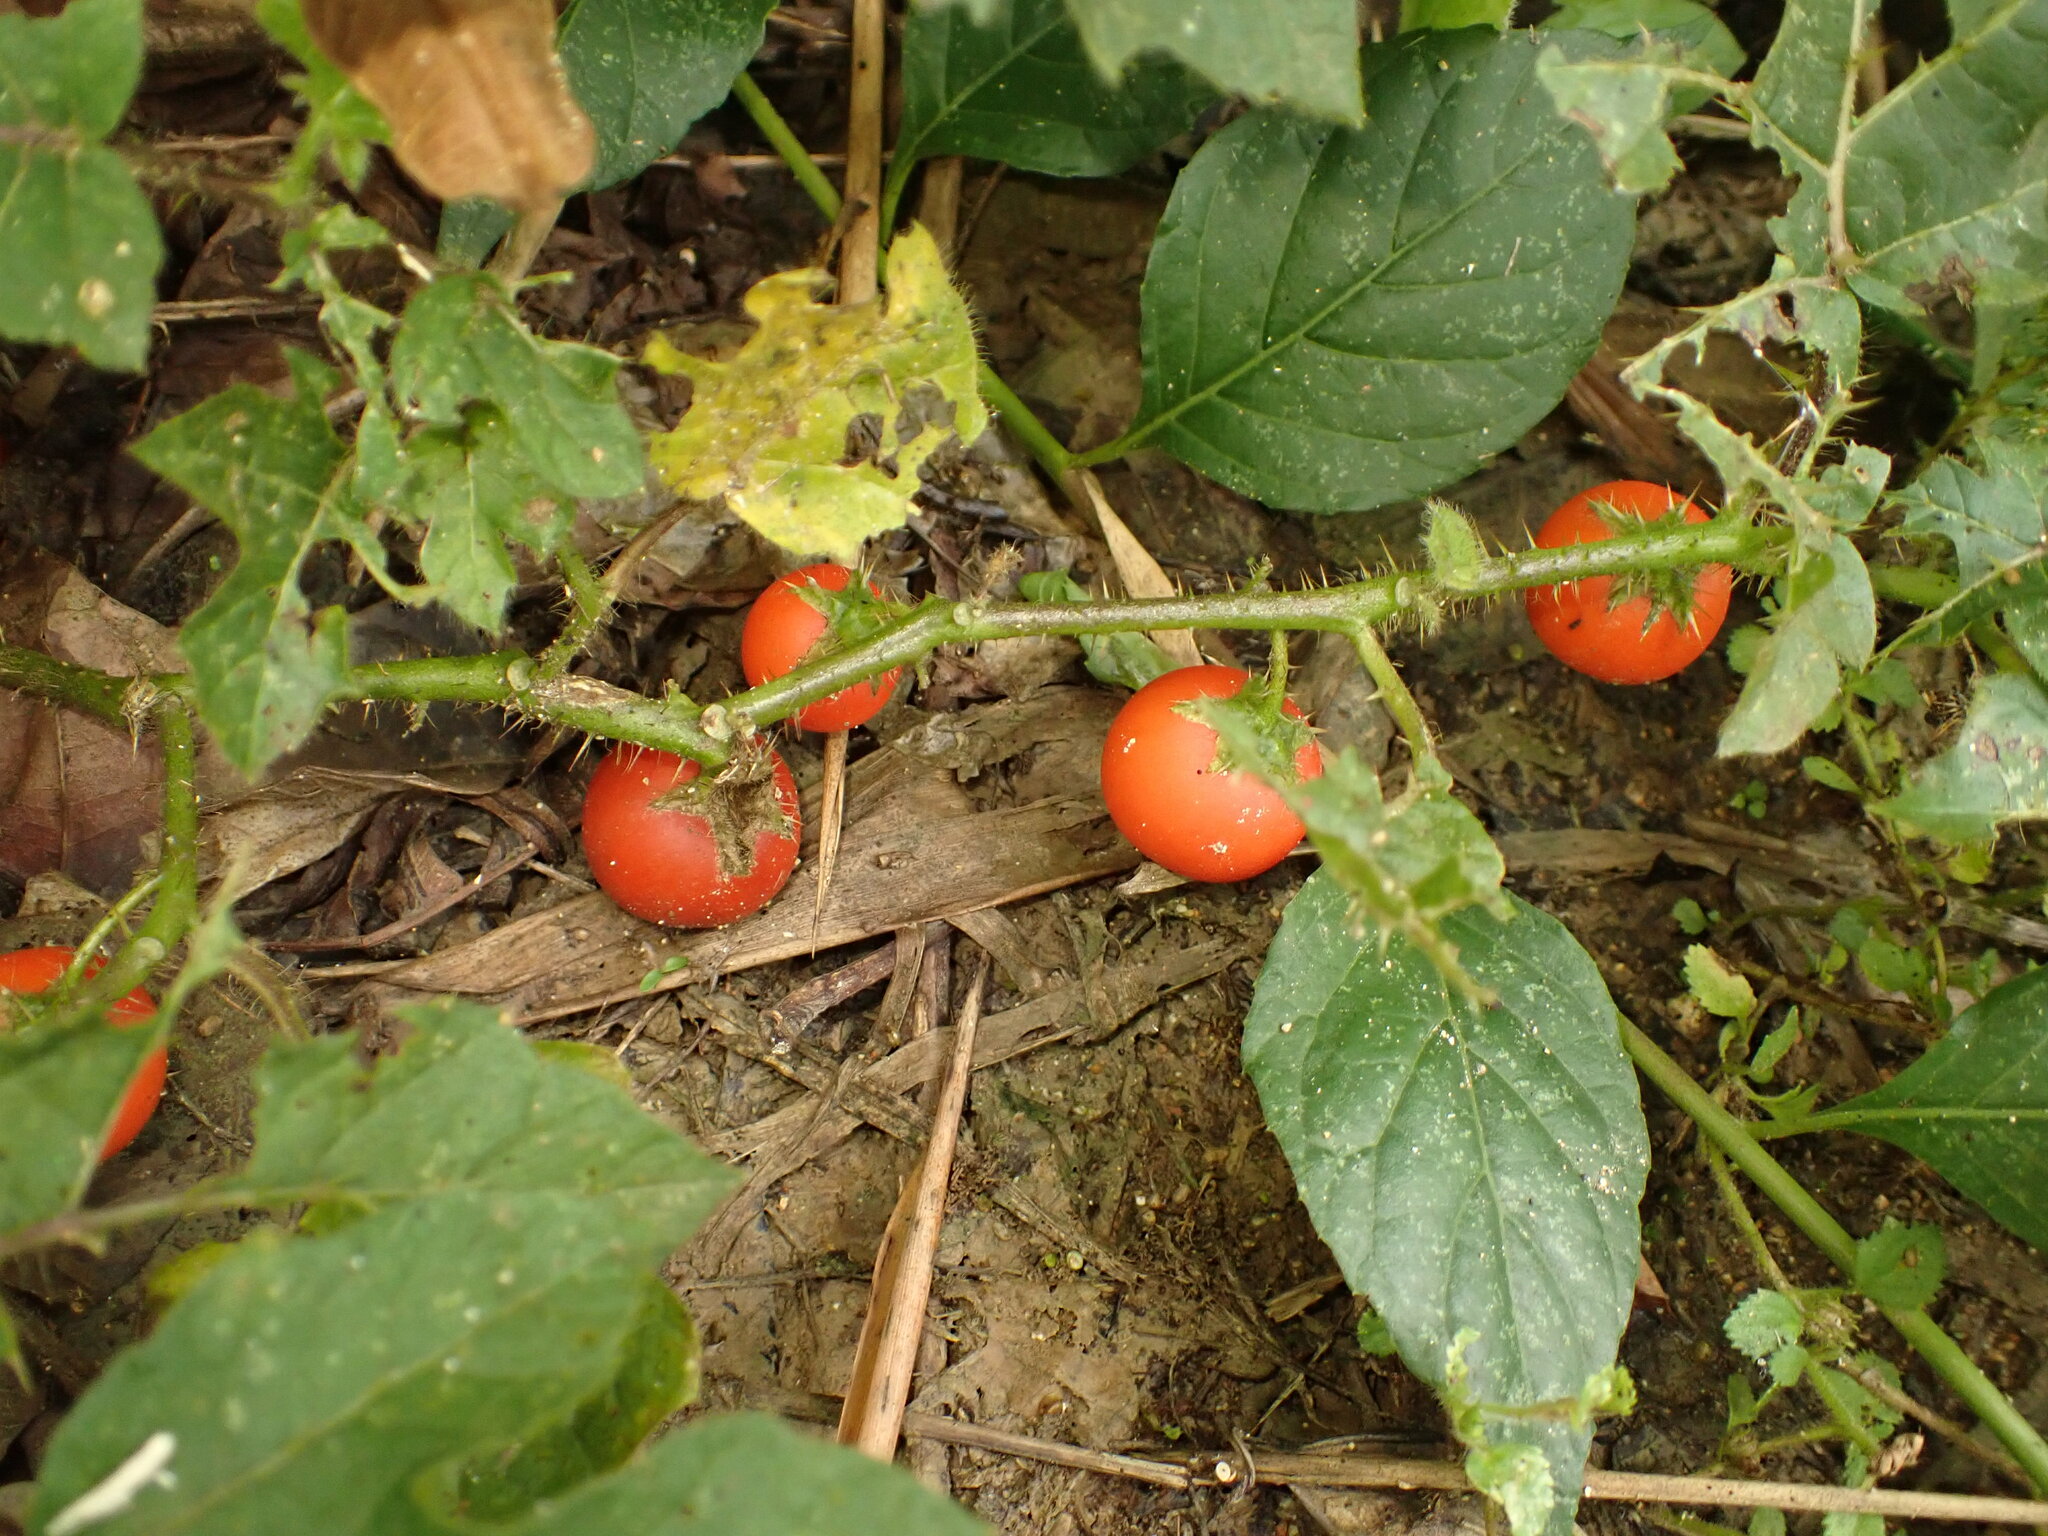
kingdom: Plantae
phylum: Tracheophyta
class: Magnoliopsida
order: Solanales
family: Solanaceae
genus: Solanum
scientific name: Solanum capsicoides
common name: Cockroach berry
